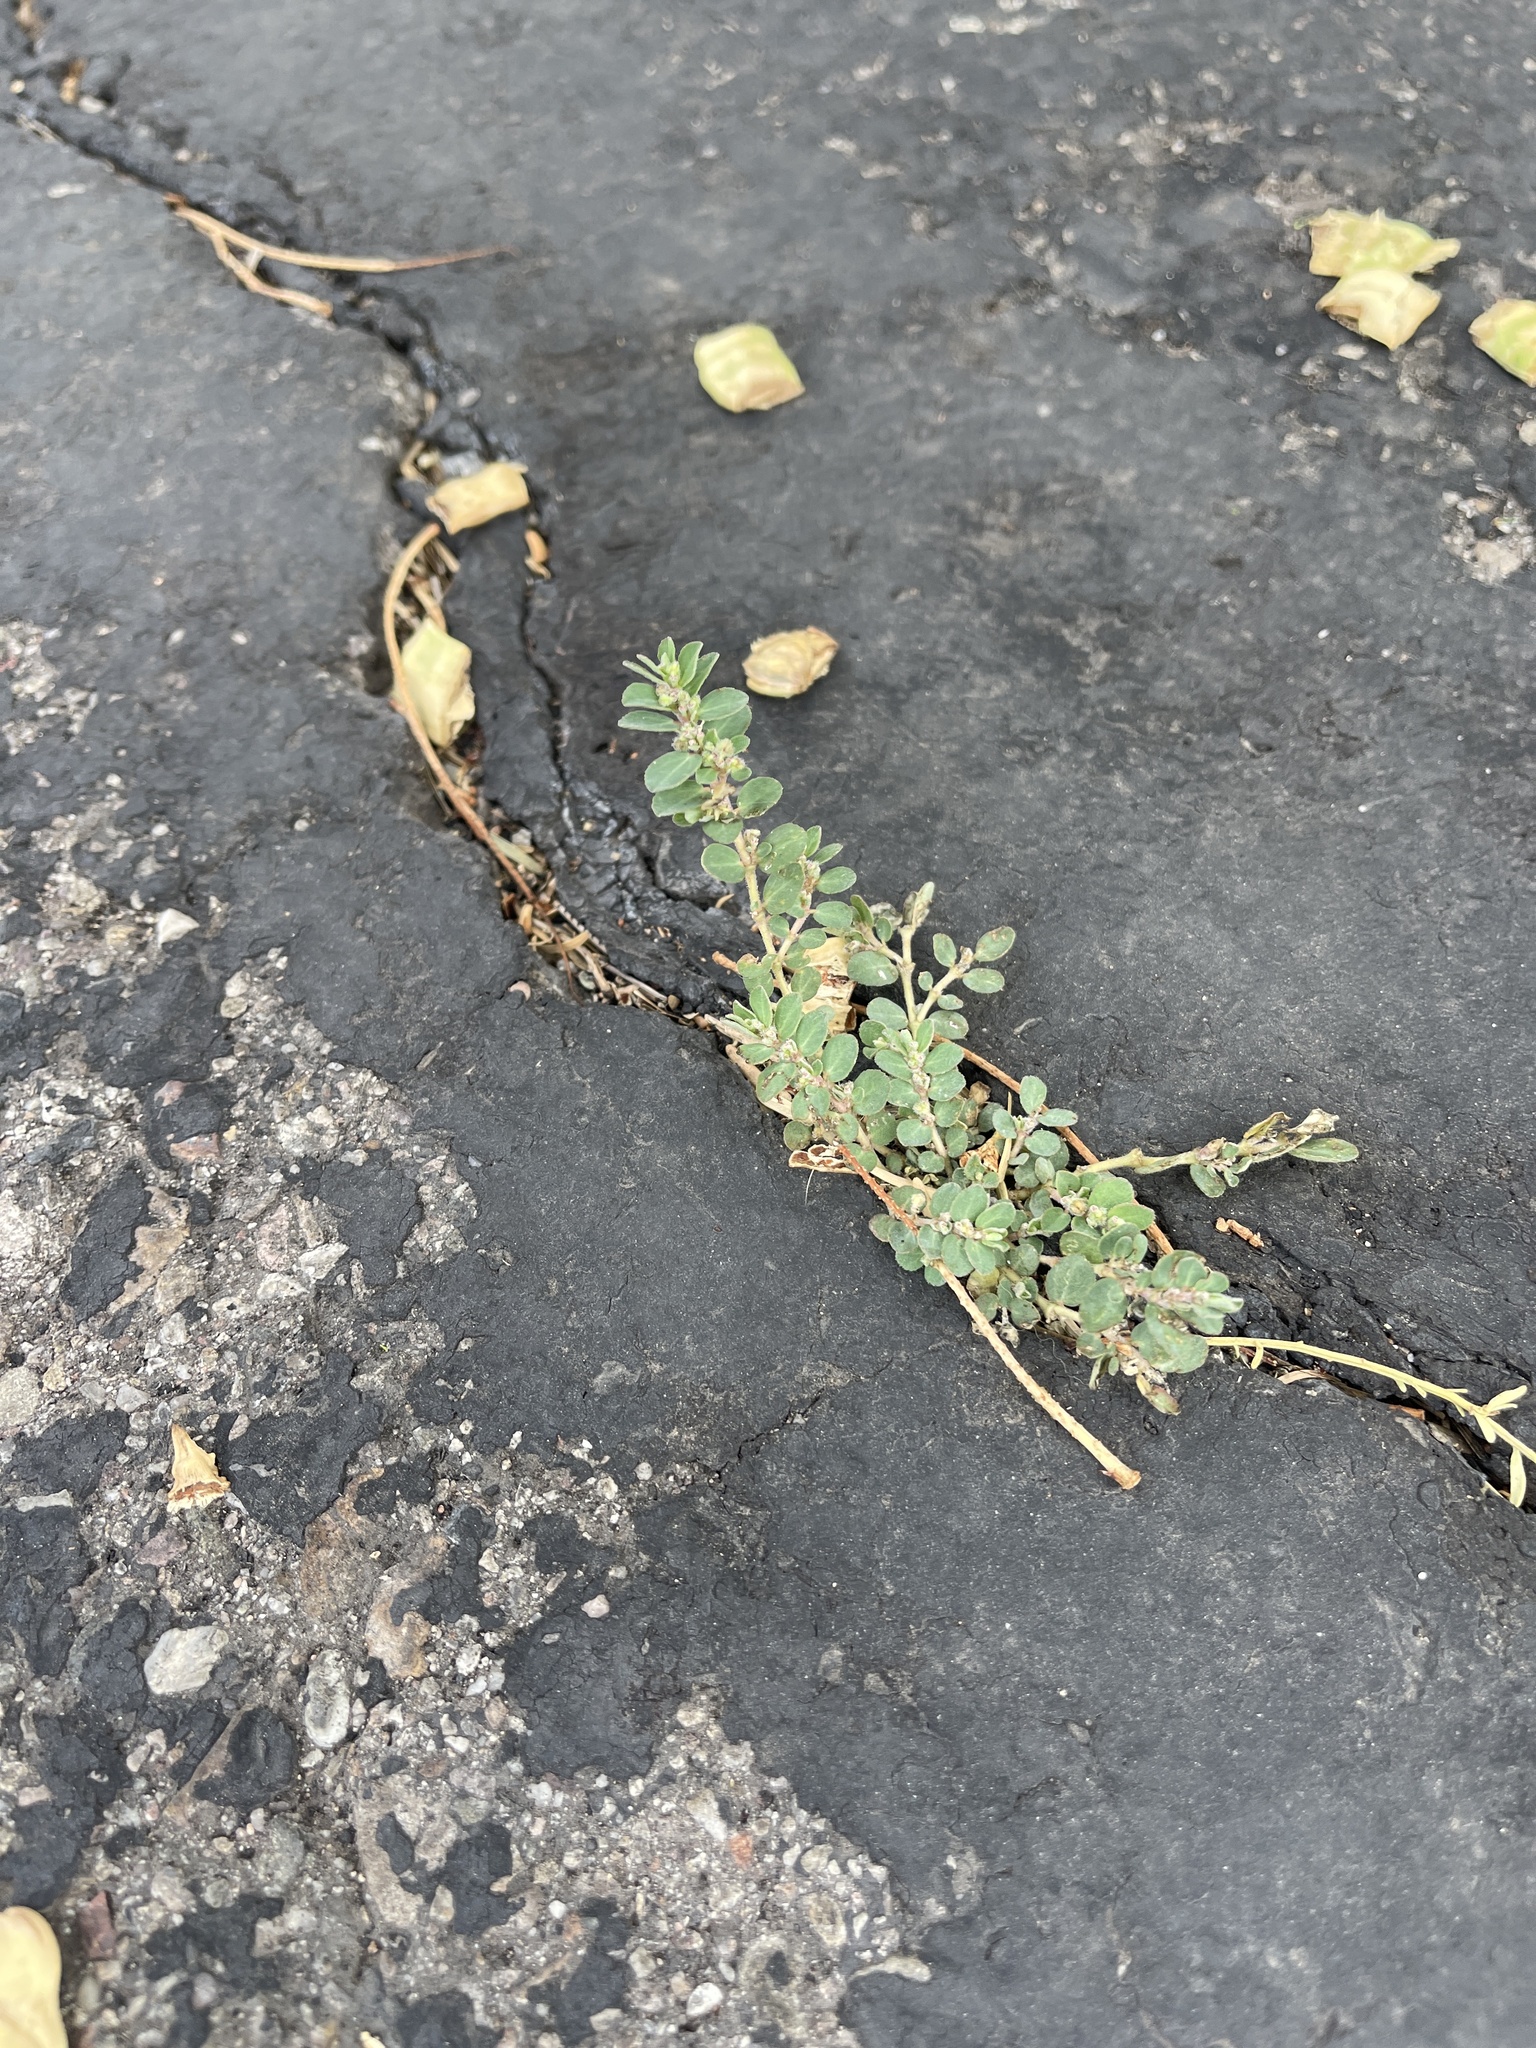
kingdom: Plantae
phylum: Tracheophyta
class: Magnoliopsida
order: Malpighiales
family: Euphorbiaceae
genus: Euphorbia
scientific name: Euphorbia prostrata
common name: Prostrate sandmat
